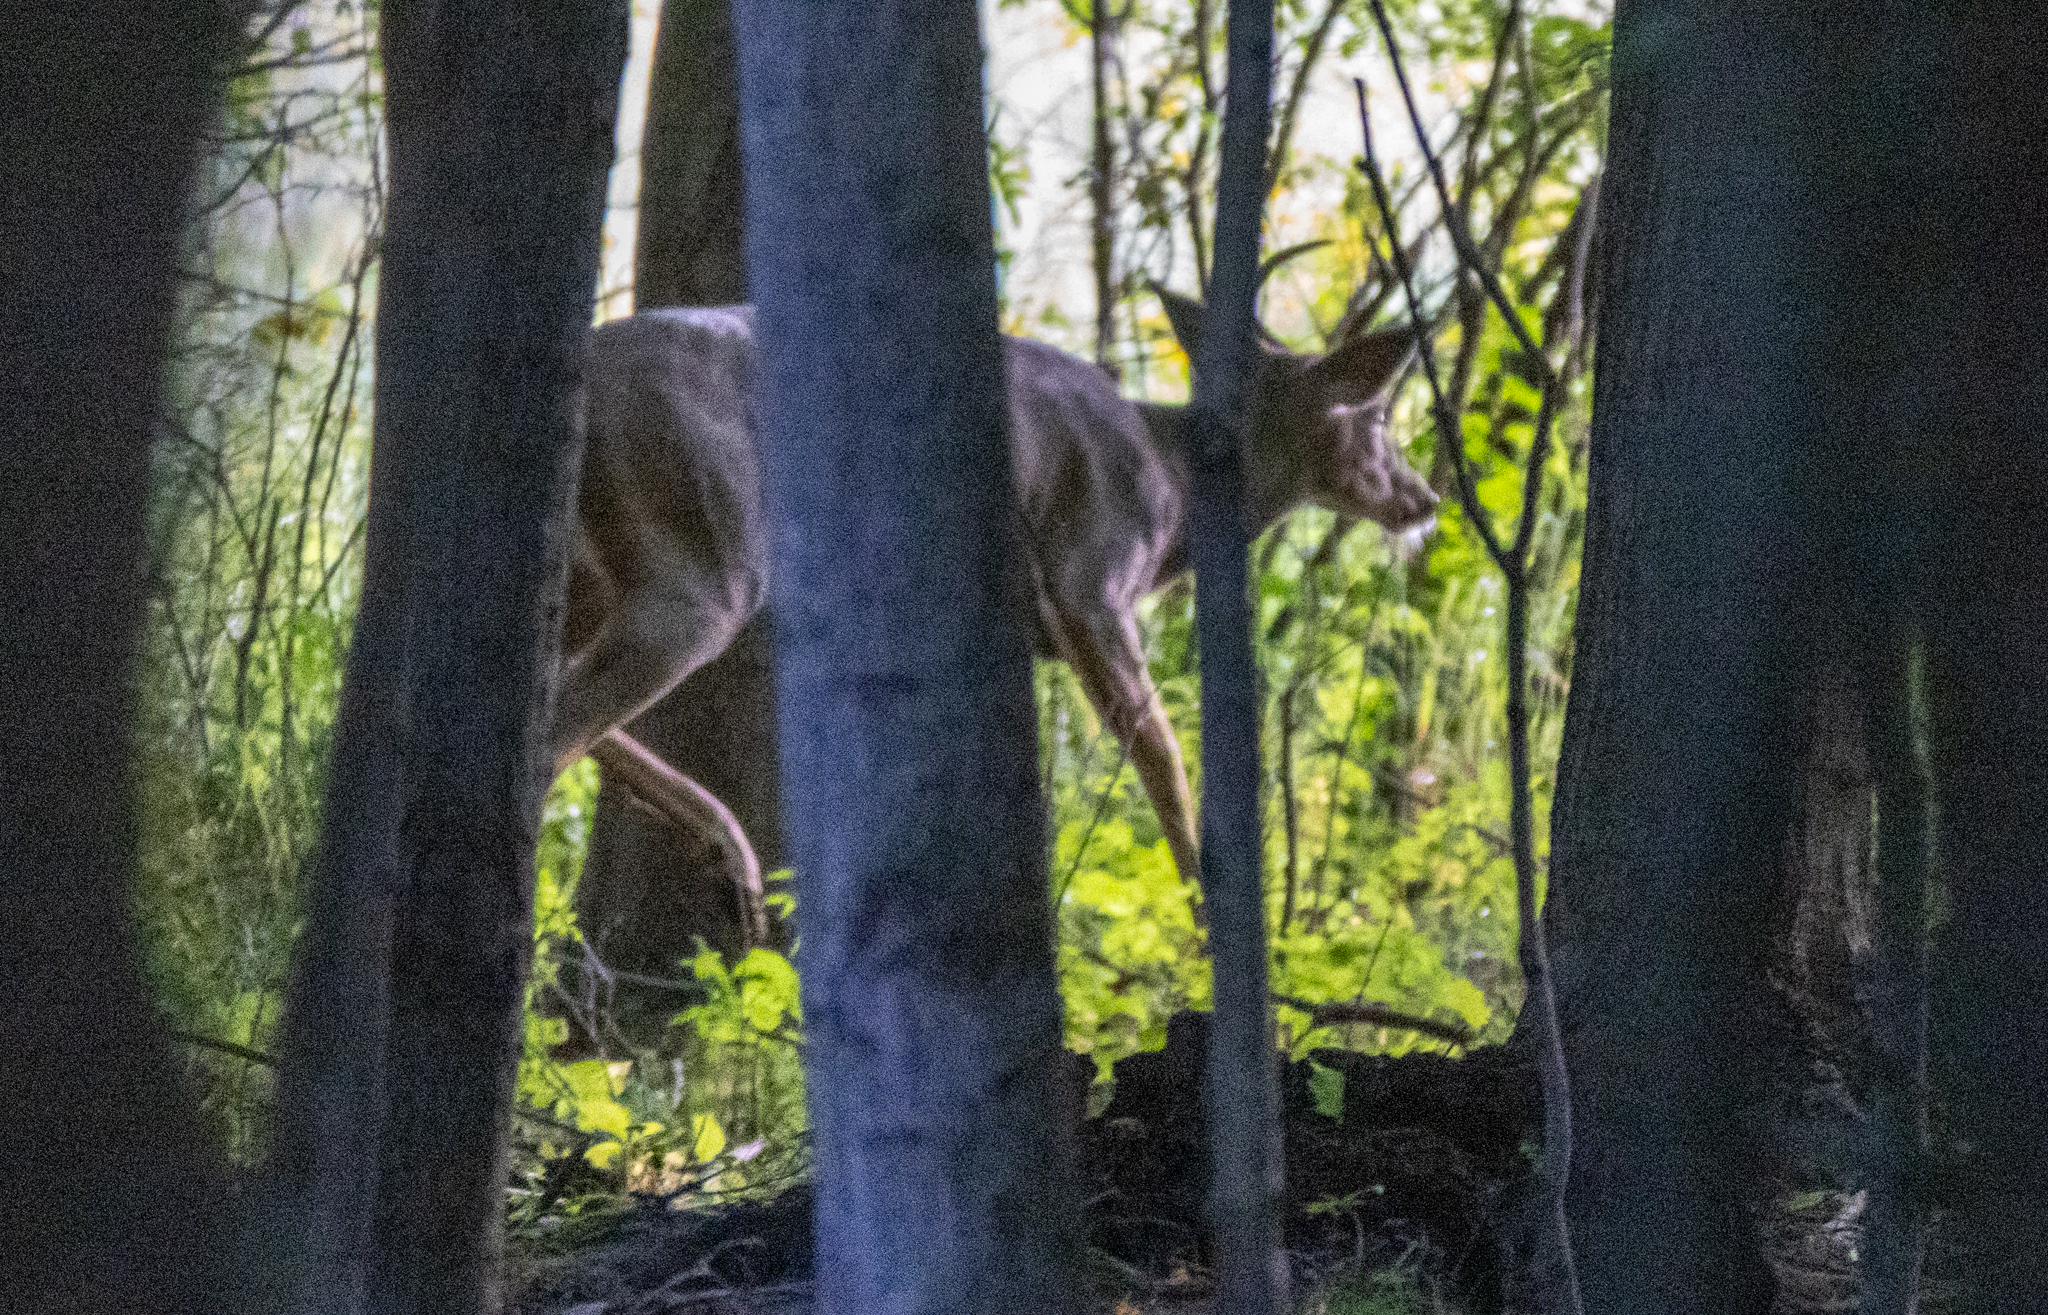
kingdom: Animalia
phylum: Chordata
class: Mammalia
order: Artiodactyla
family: Cervidae
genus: Odocoileus
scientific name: Odocoileus virginianus
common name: White-tailed deer
